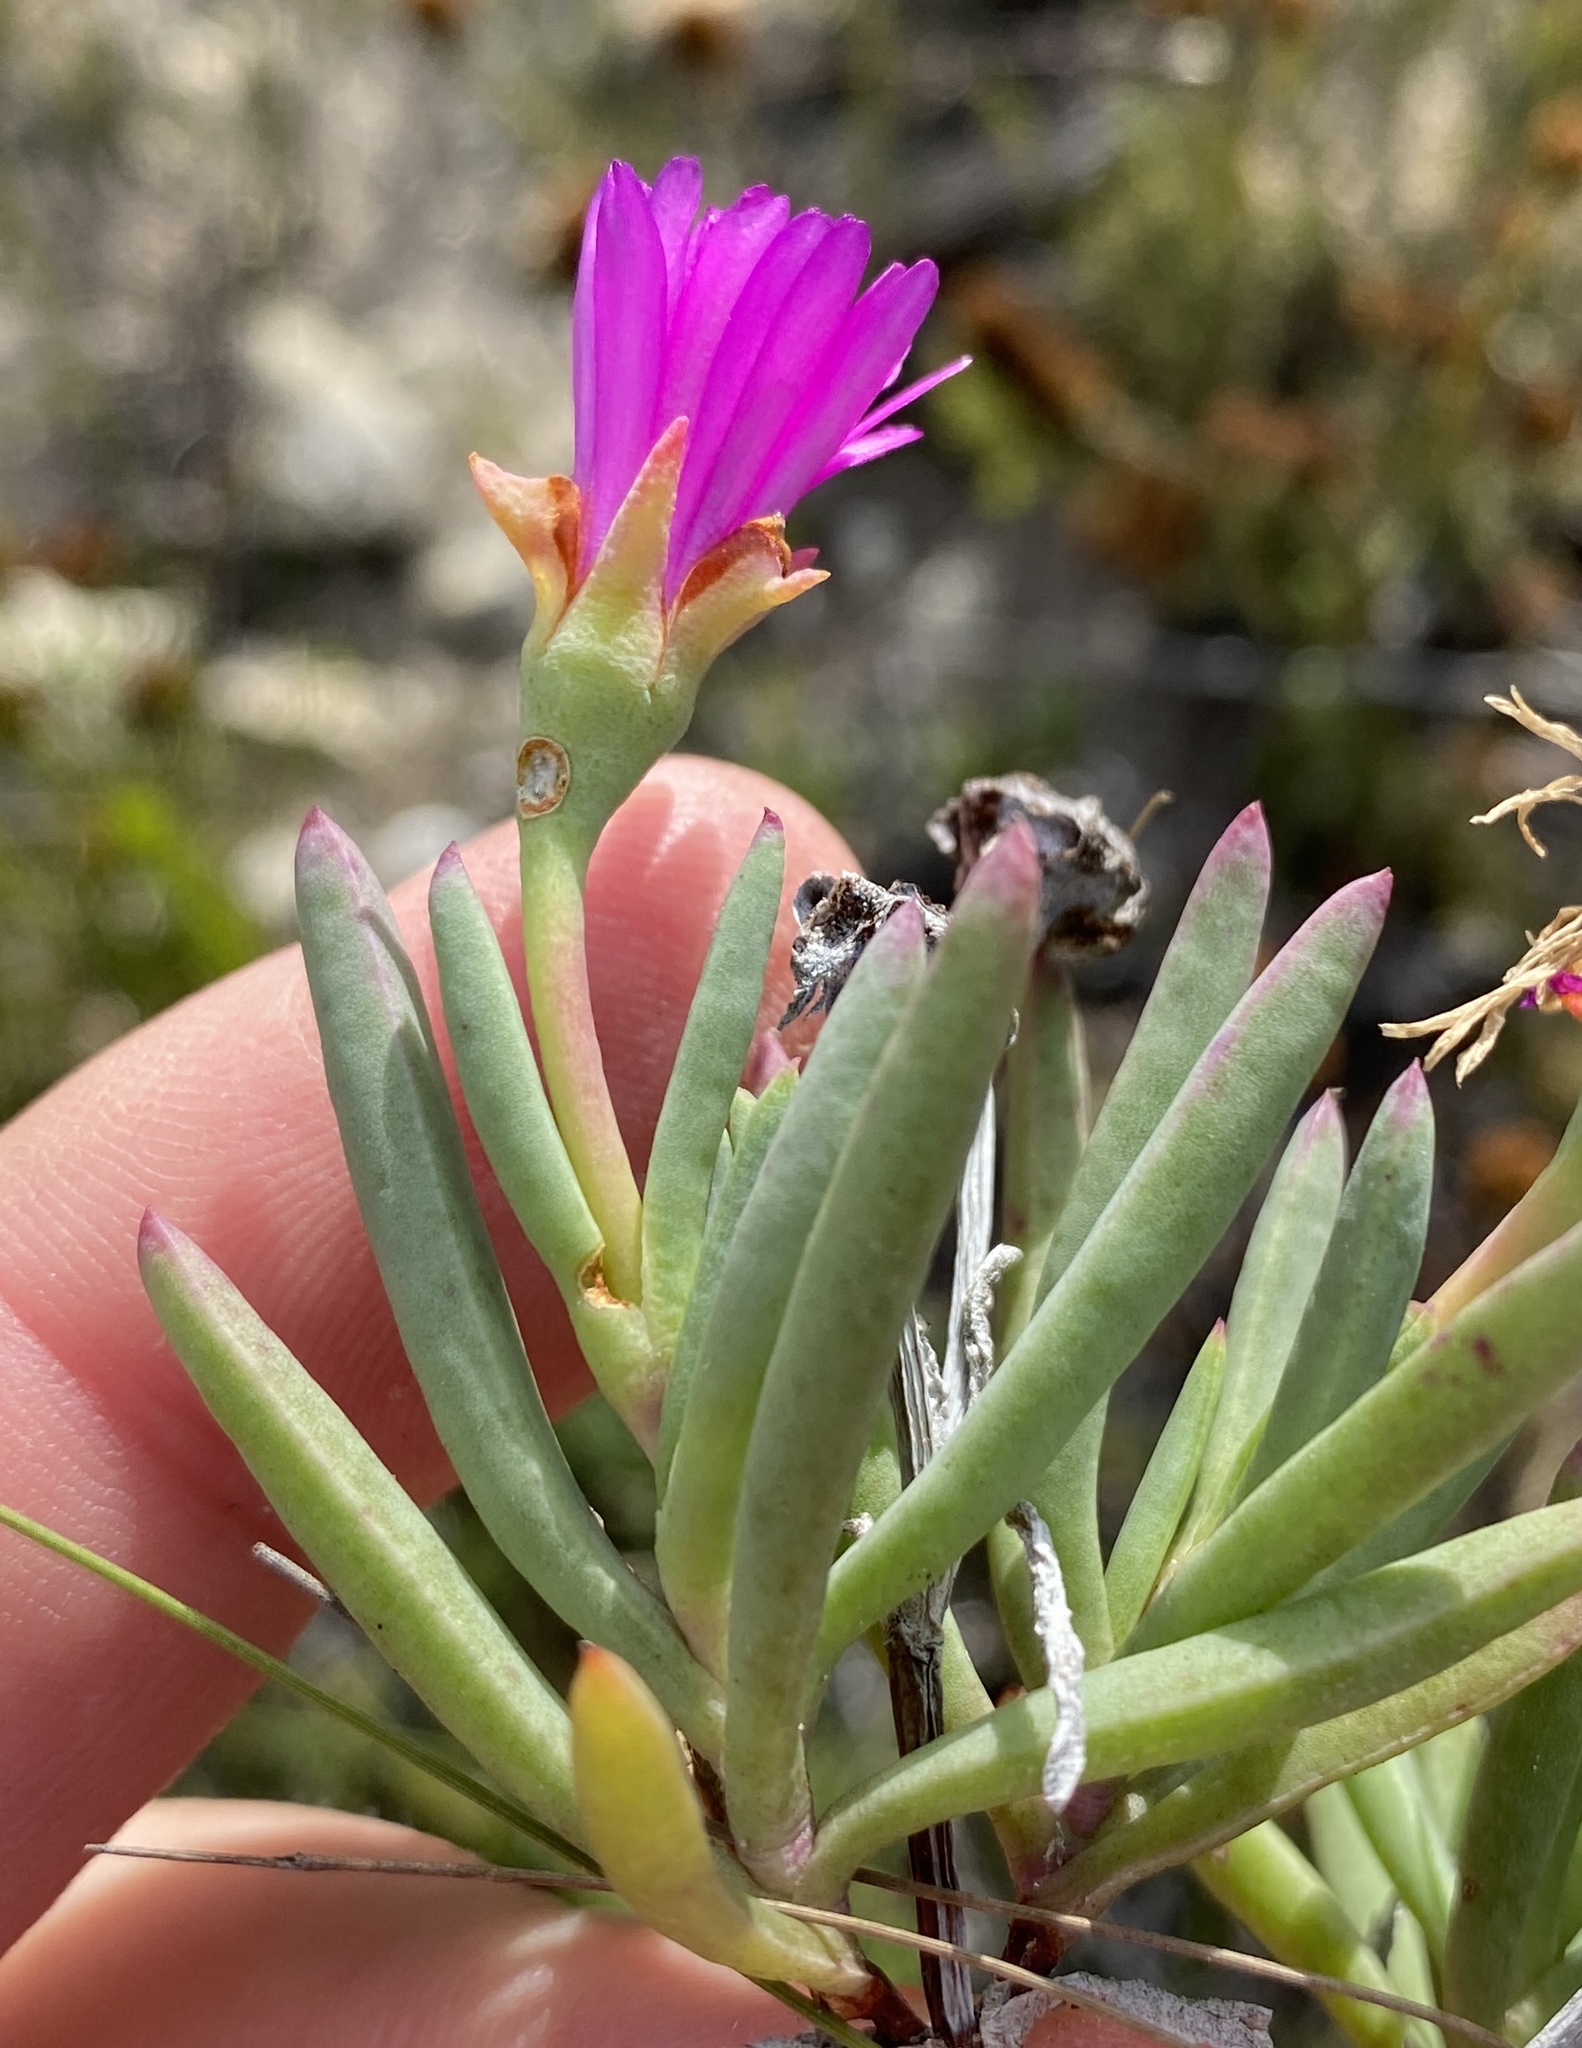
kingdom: Plantae
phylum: Tracheophyta
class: Magnoliopsida
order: Caryophyllales
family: Aizoaceae
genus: Lampranthus
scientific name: Lampranthus spectabilis
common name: Trailing iceplant
